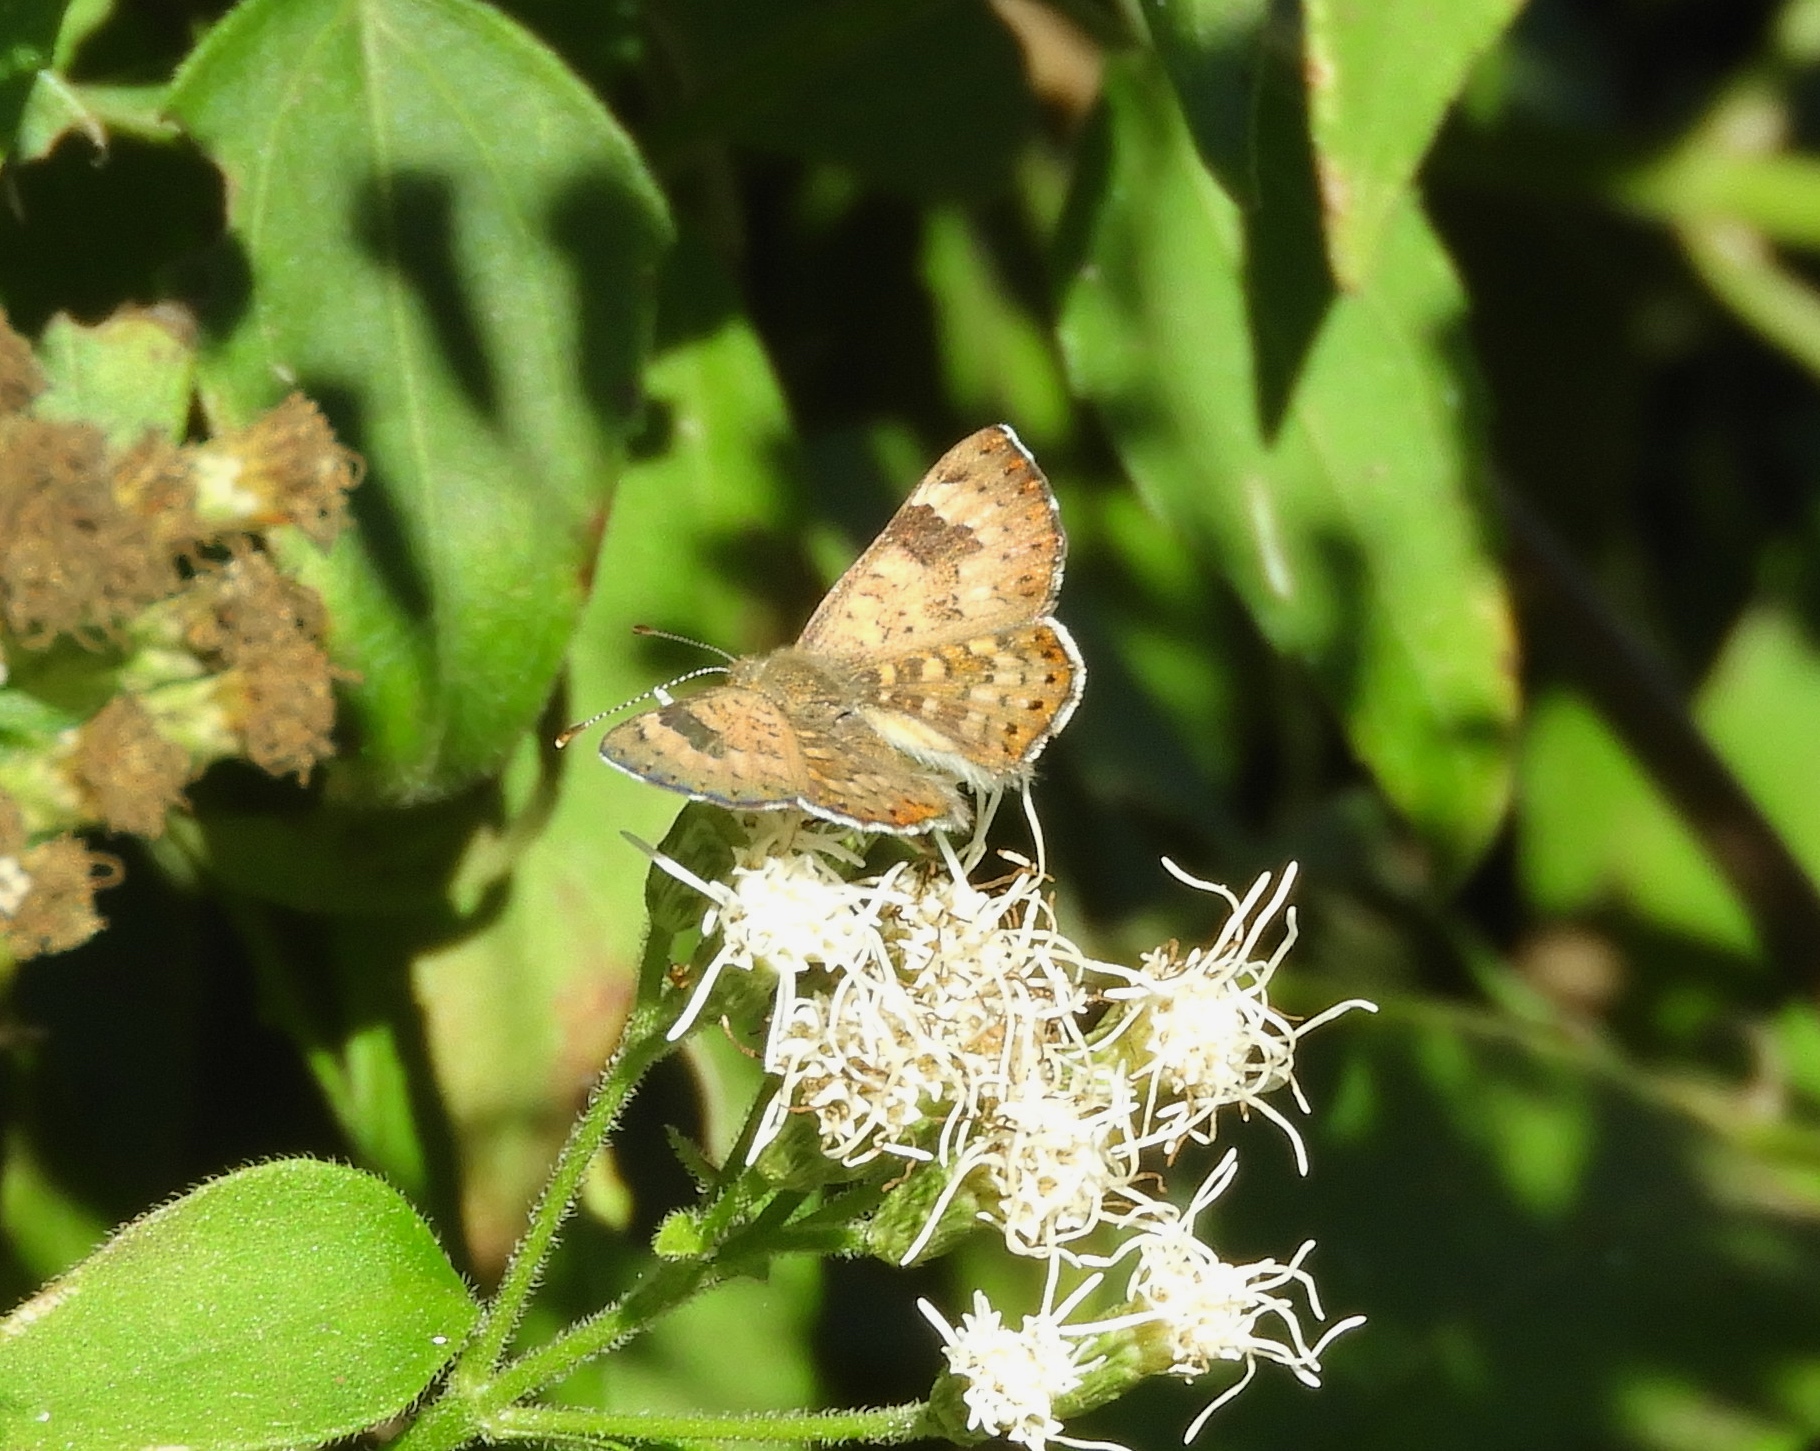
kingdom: Animalia
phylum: Arthropoda
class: Insecta
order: Lepidoptera
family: Riodinidae
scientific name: Riodinidae
